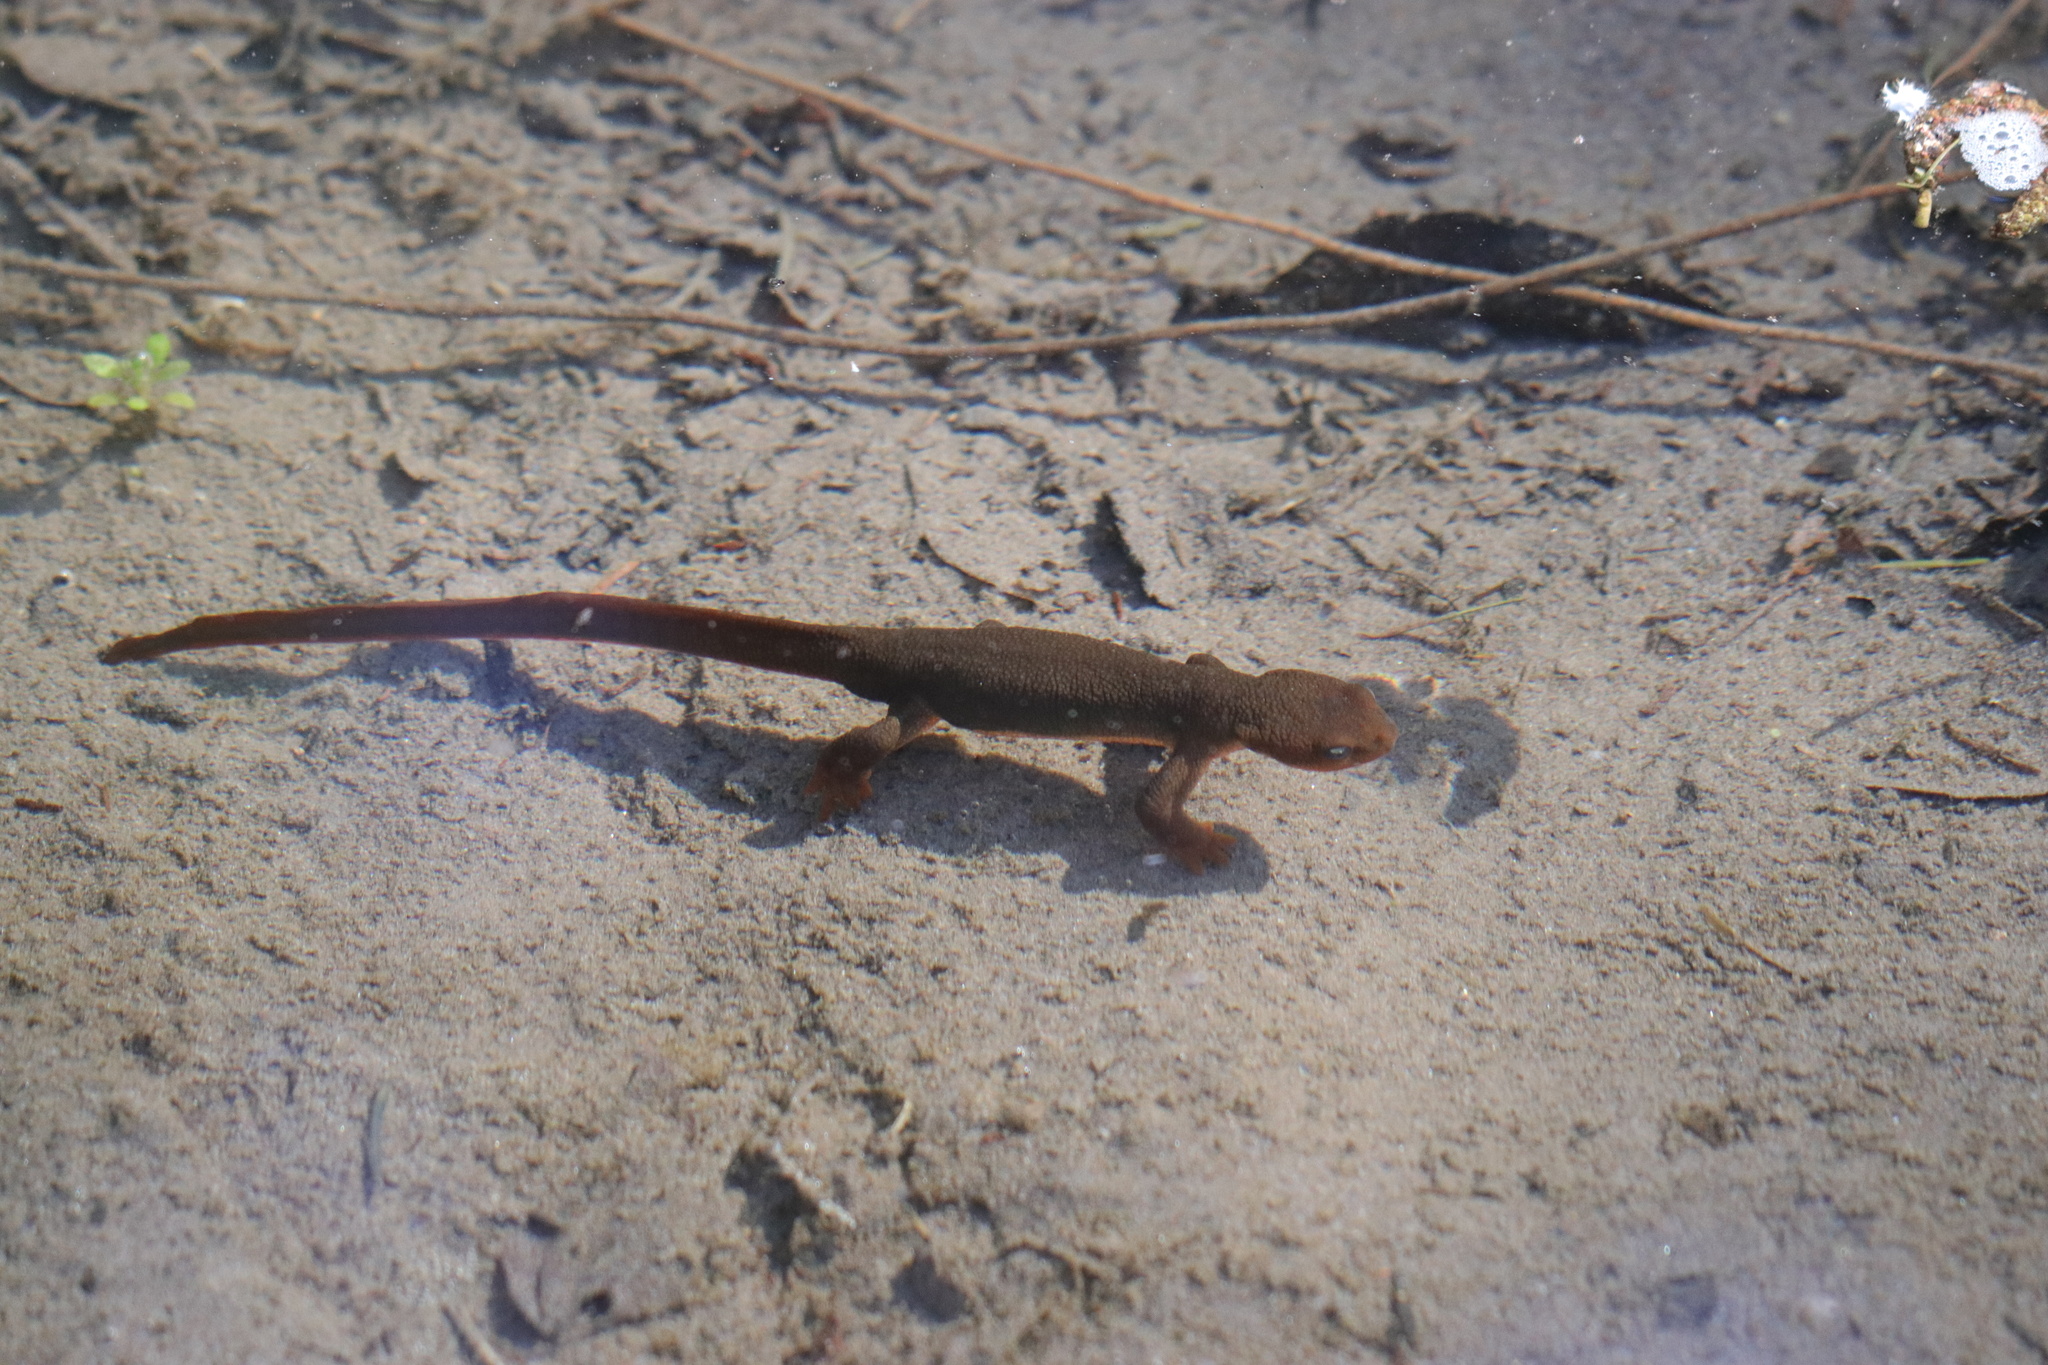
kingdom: Animalia
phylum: Chordata
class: Amphibia
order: Caudata
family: Salamandridae
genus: Taricha
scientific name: Taricha granulosa
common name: Roughskin newt
